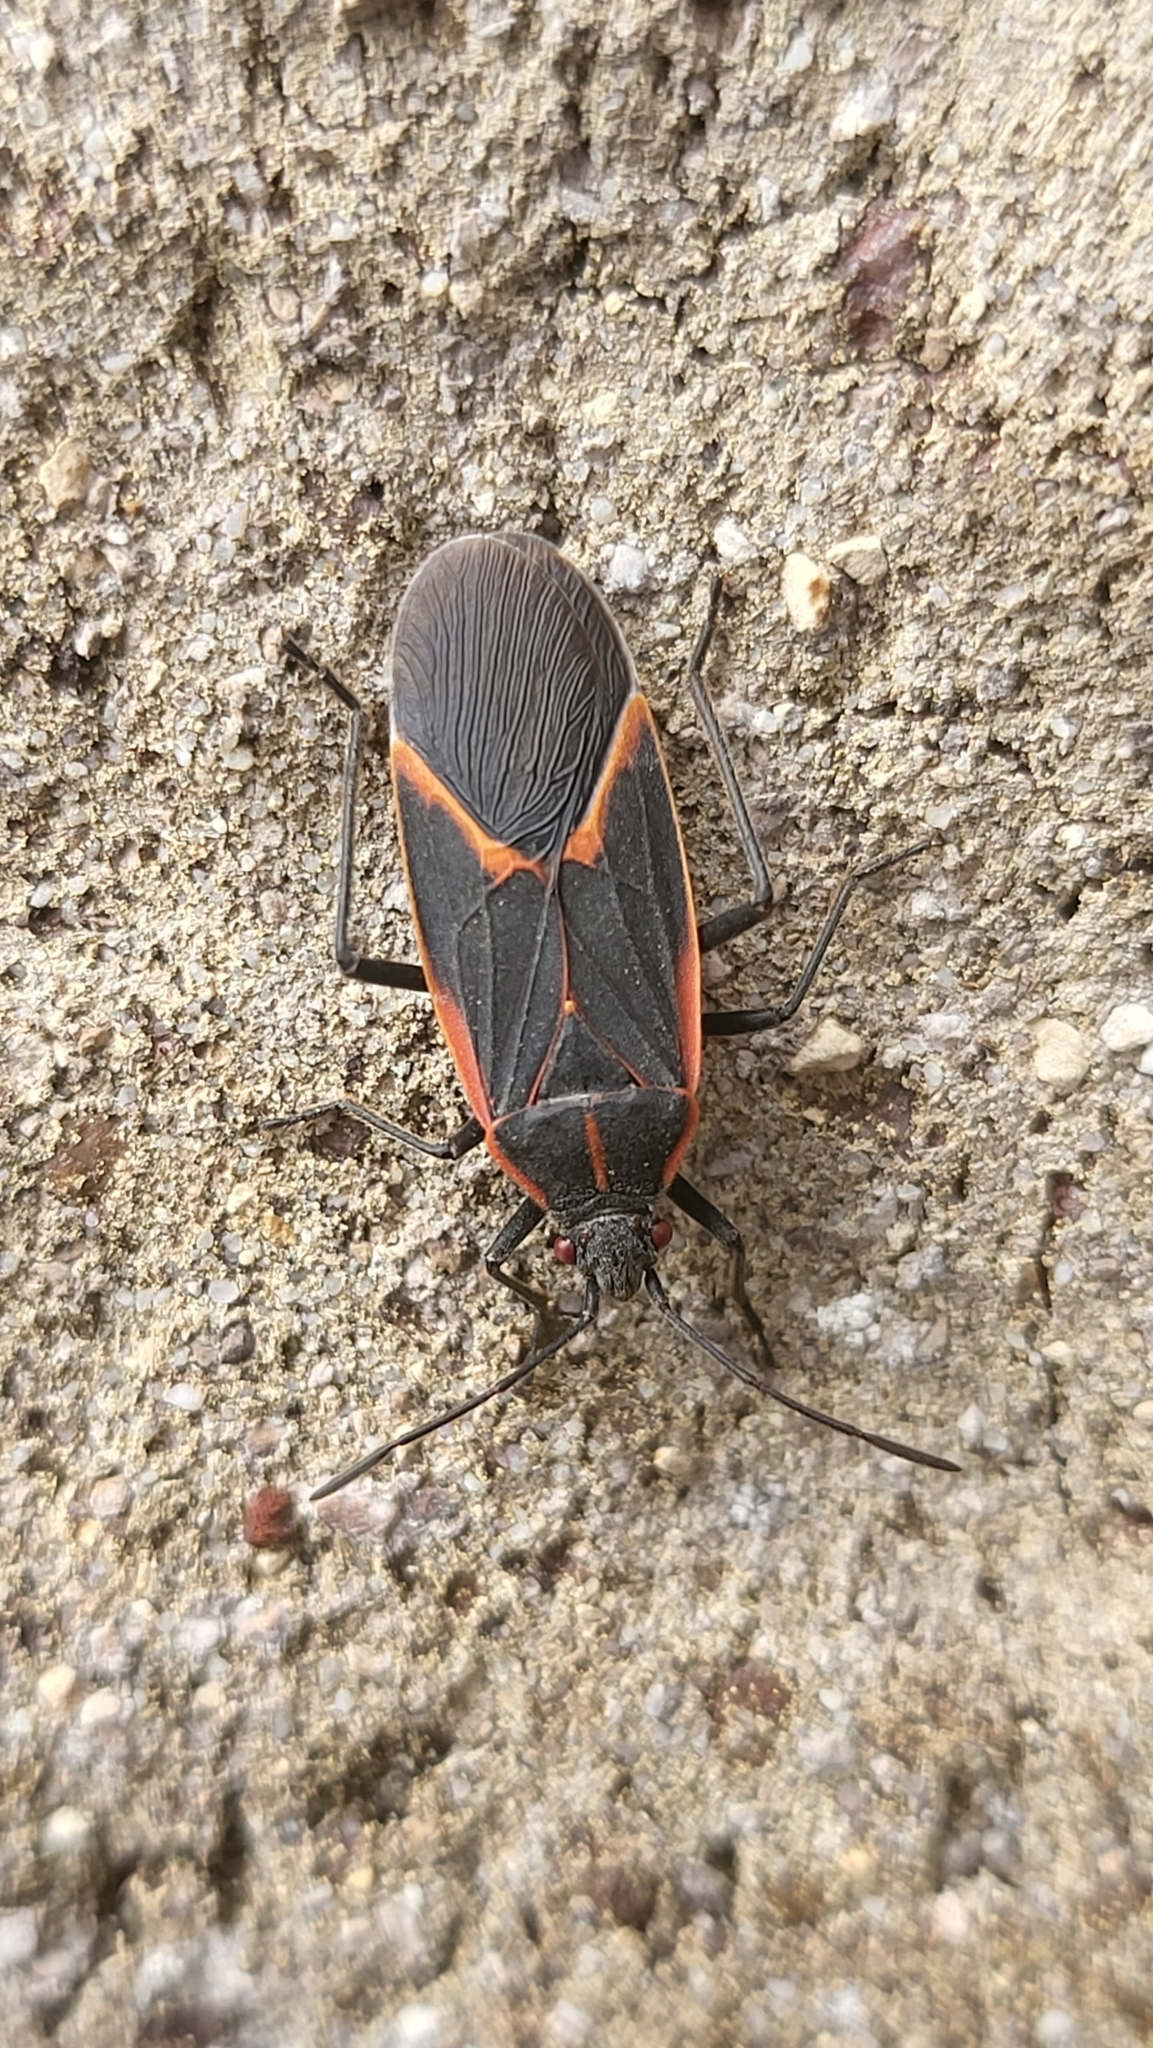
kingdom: Animalia
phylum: Arthropoda
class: Insecta
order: Hemiptera
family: Rhopalidae
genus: Boisea
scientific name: Boisea trivittata
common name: Boxelder bug
